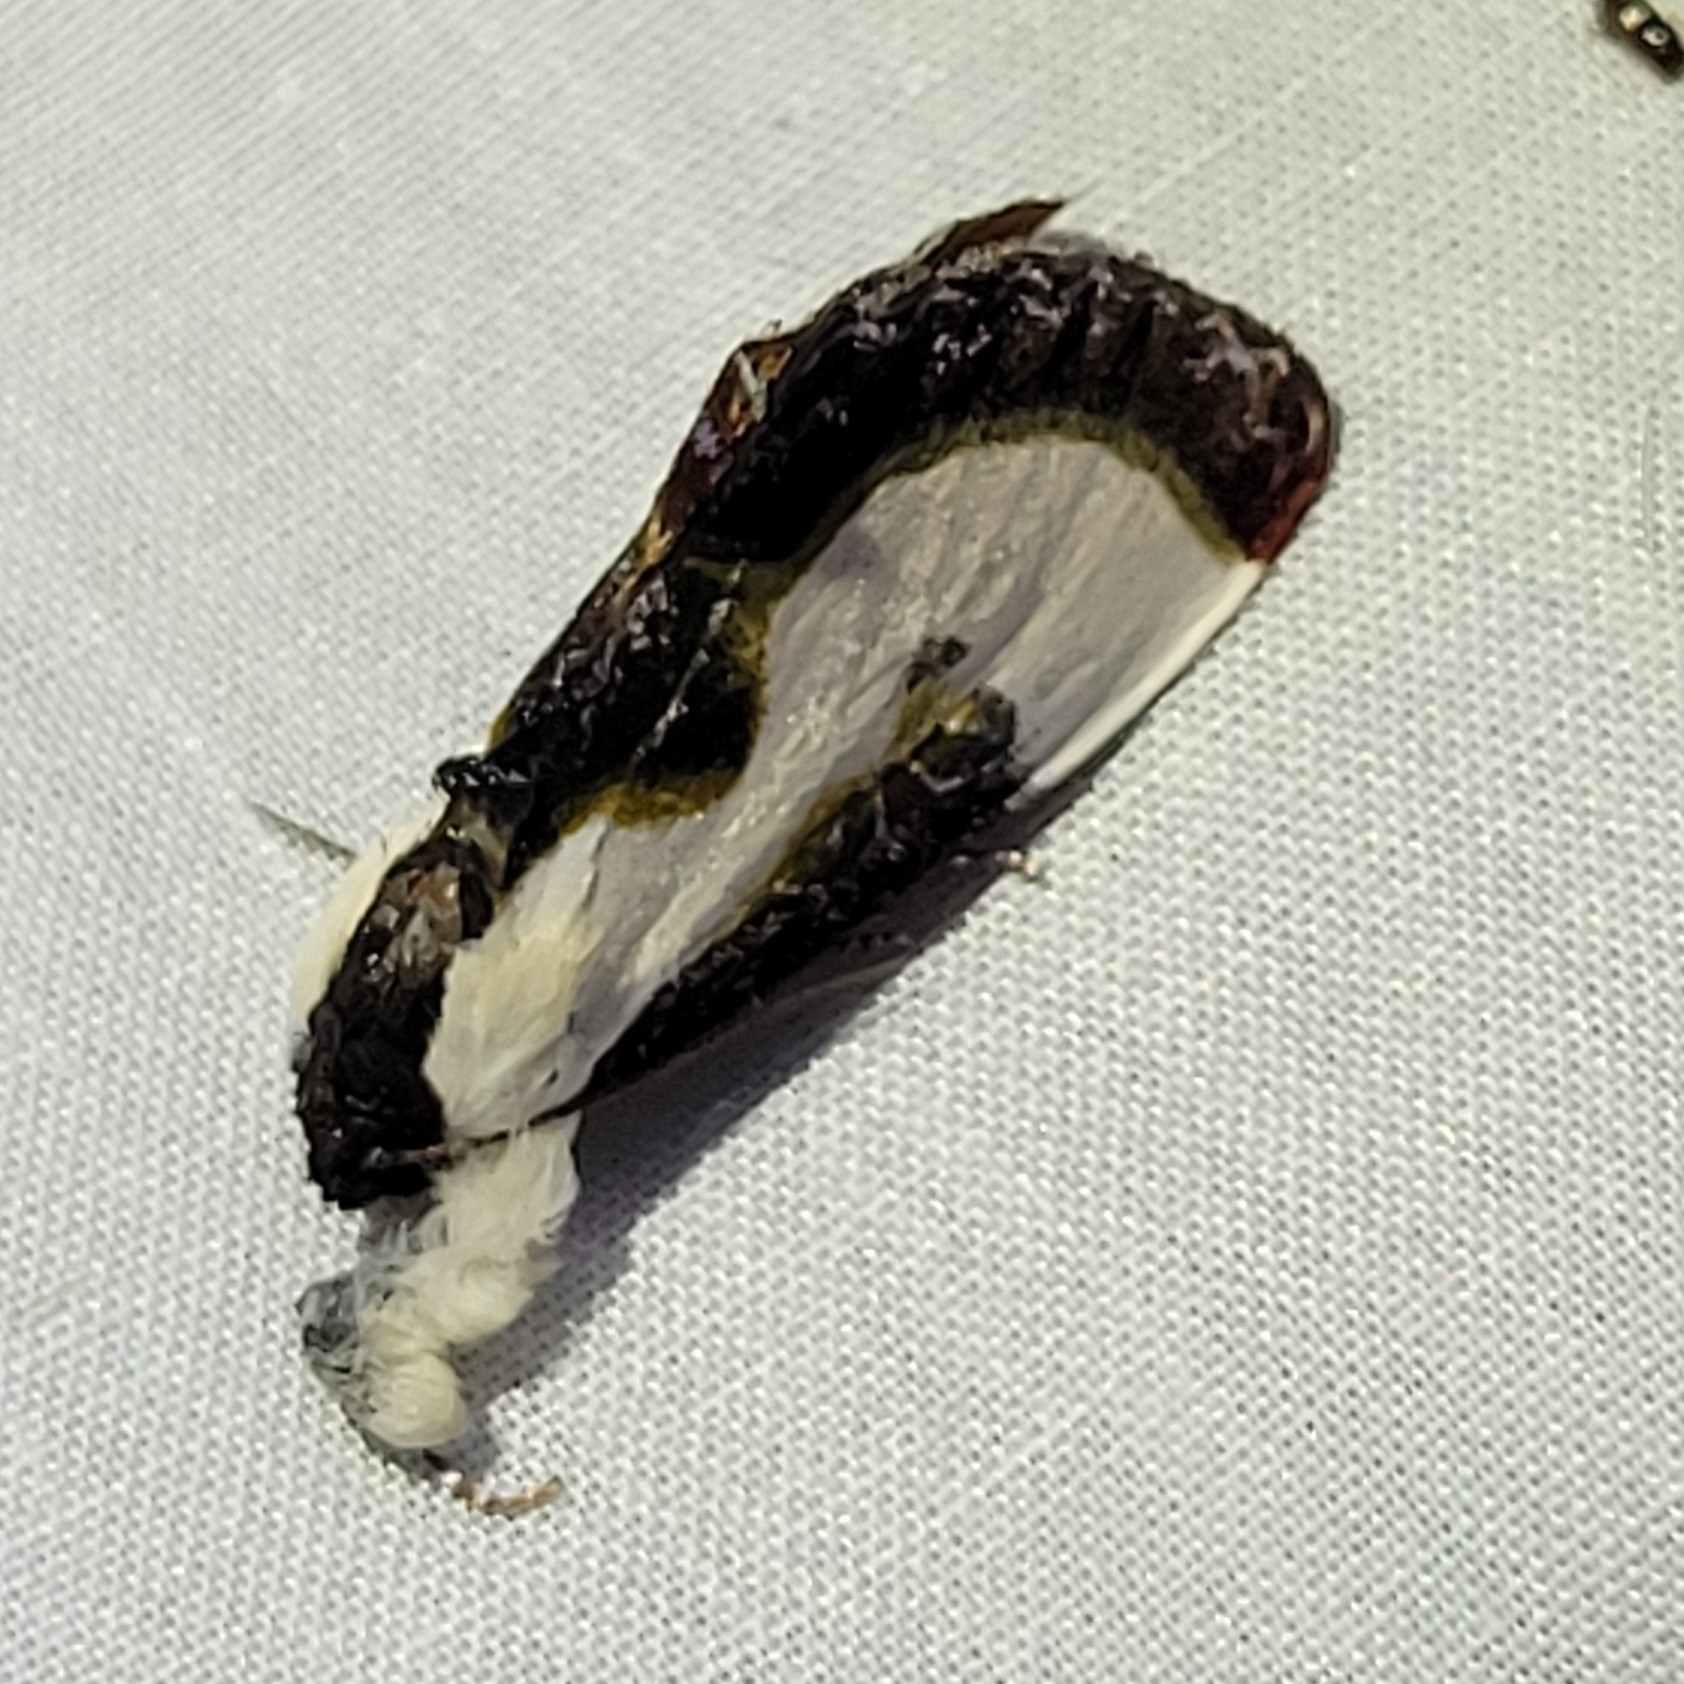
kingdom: Animalia
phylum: Arthropoda
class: Insecta
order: Lepidoptera
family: Noctuidae
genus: Eudryas
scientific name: Eudryas grata
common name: Beautiful wood-nymph
